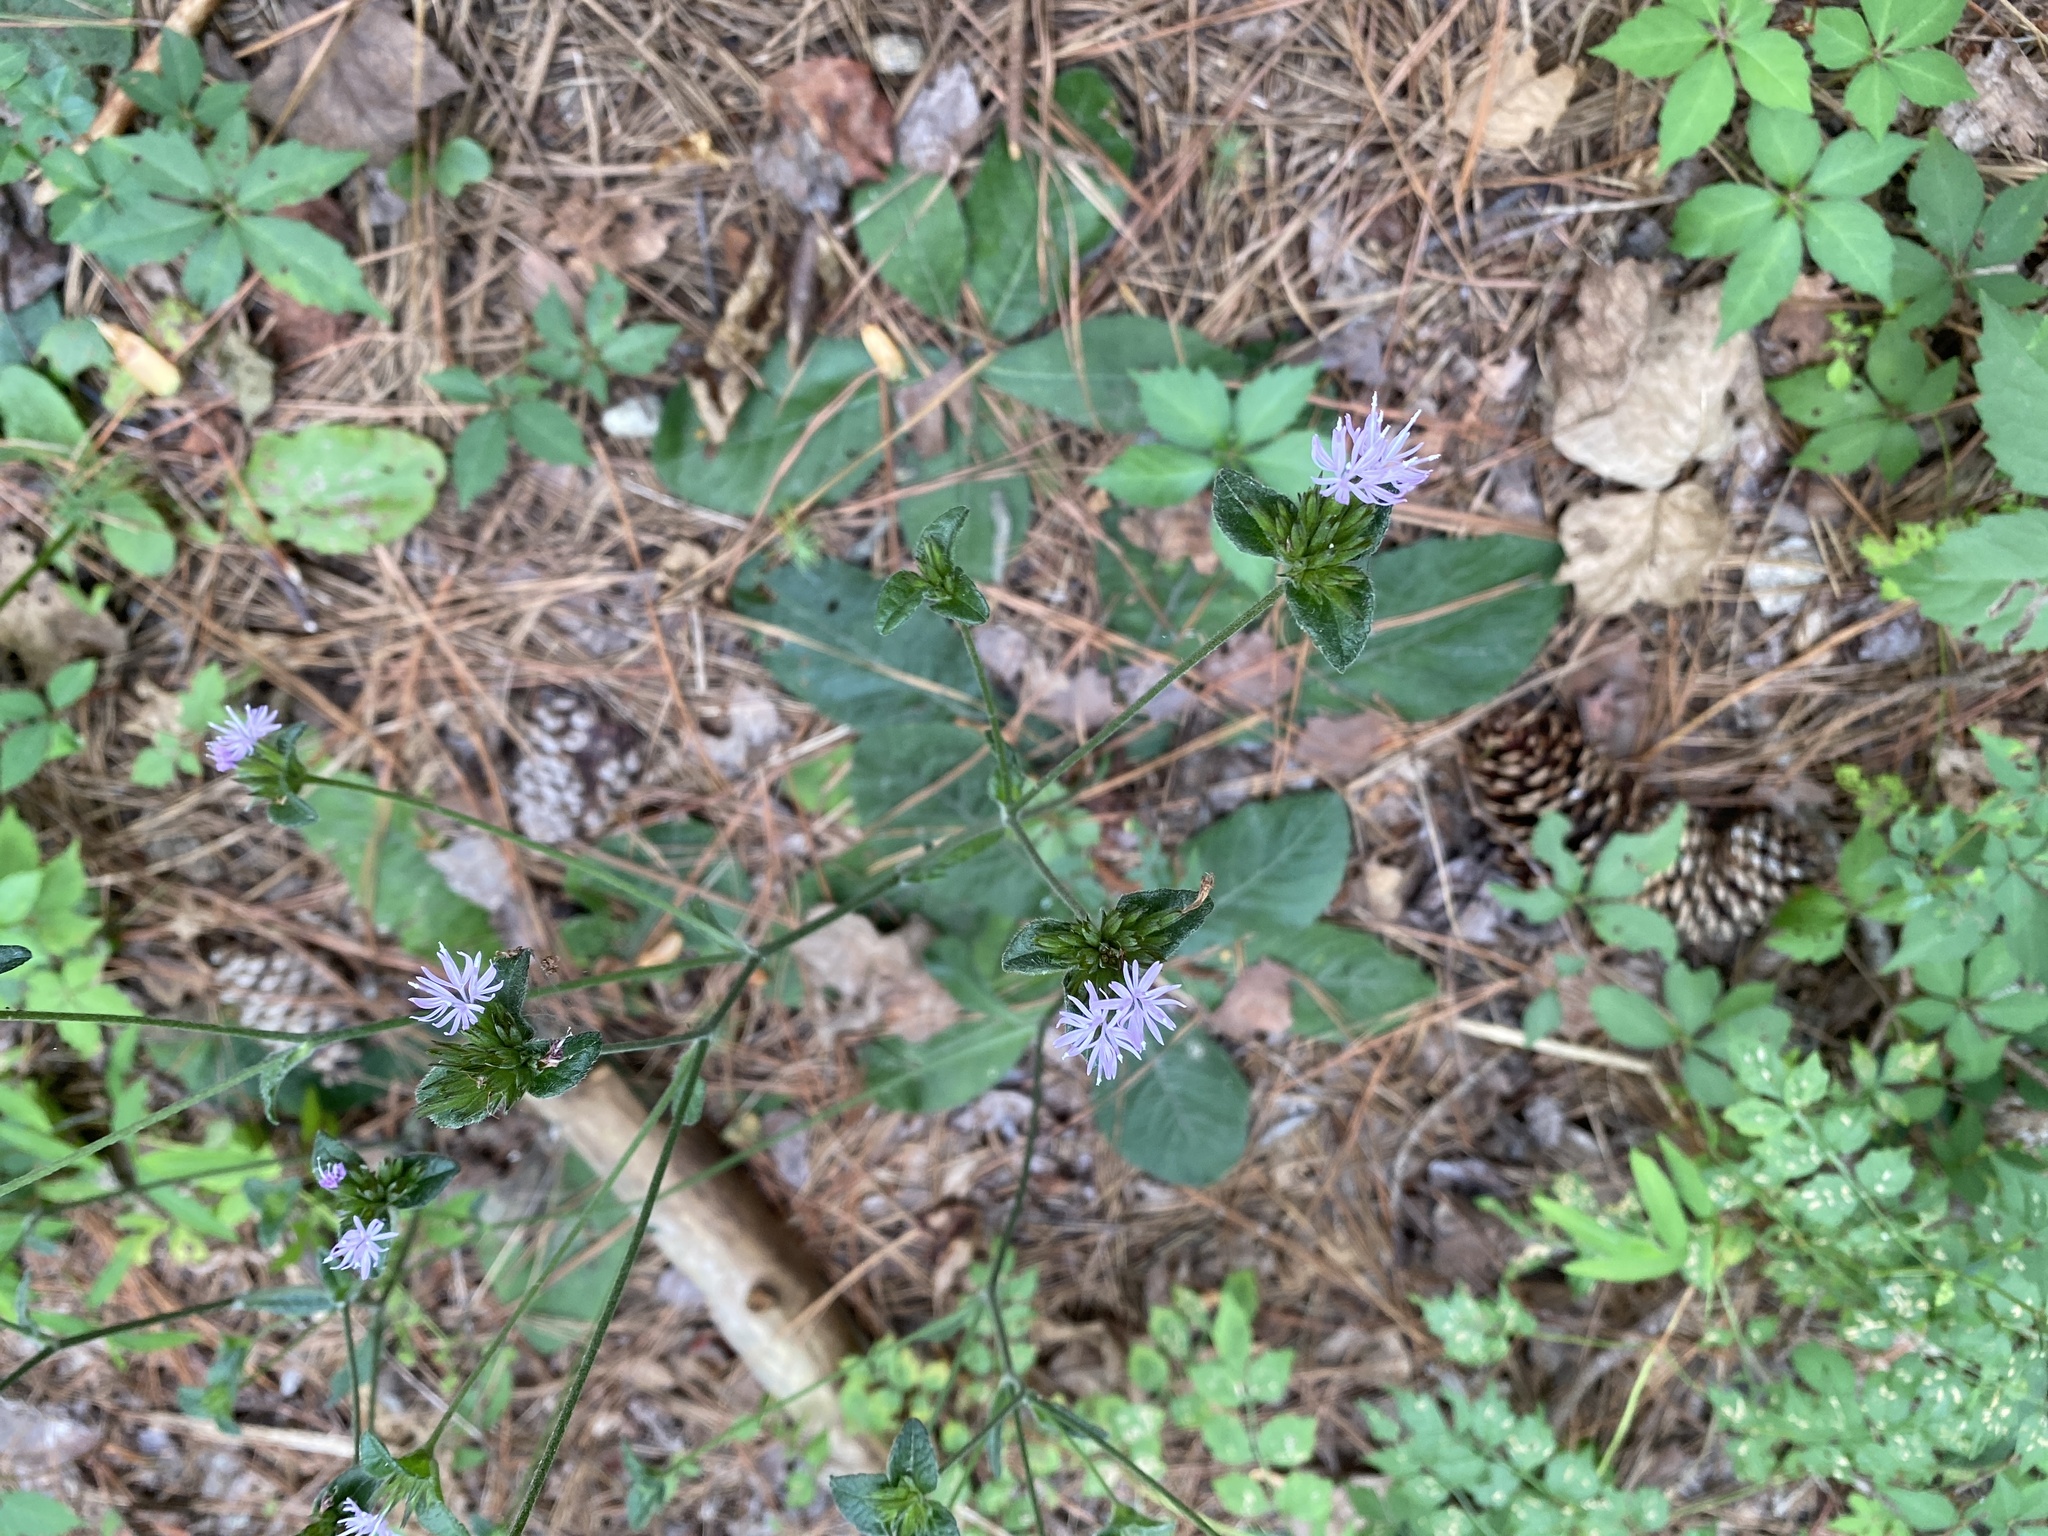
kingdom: Plantae
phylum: Tracheophyta
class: Magnoliopsida
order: Asterales
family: Asteraceae
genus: Elephantopus
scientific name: Elephantopus tomentosus
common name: Tobacco-weed
